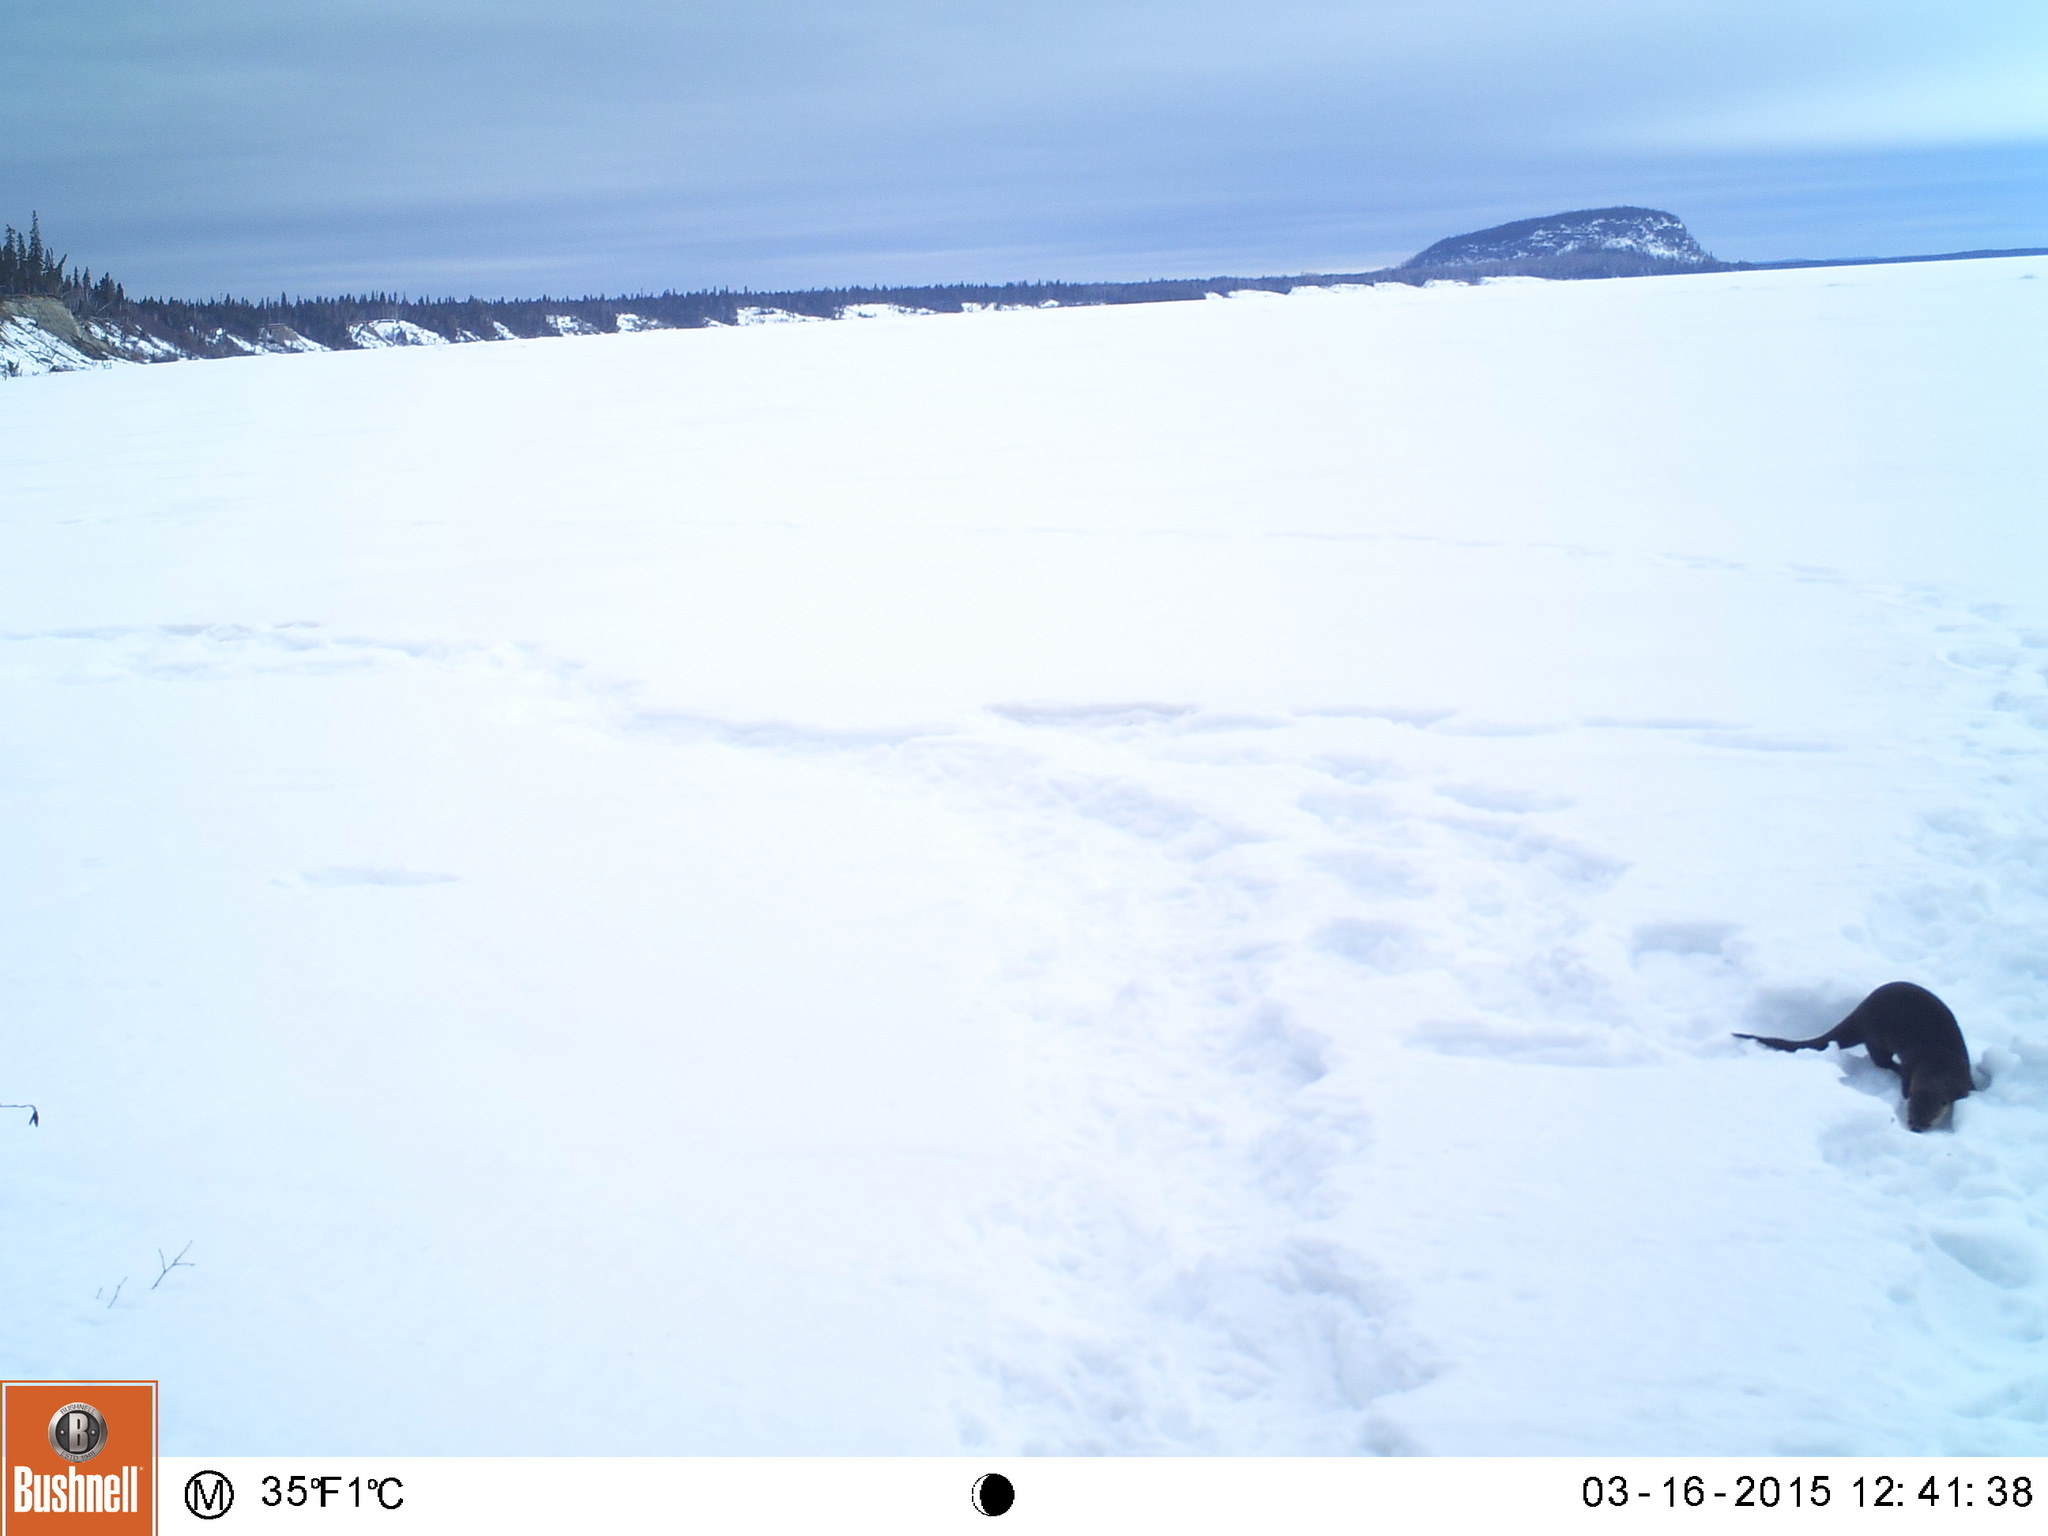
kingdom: Animalia
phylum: Chordata
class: Mammalia
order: Carnivora
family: Mustelidae
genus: Lontra
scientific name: Lontra canadensis
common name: North american river otter
